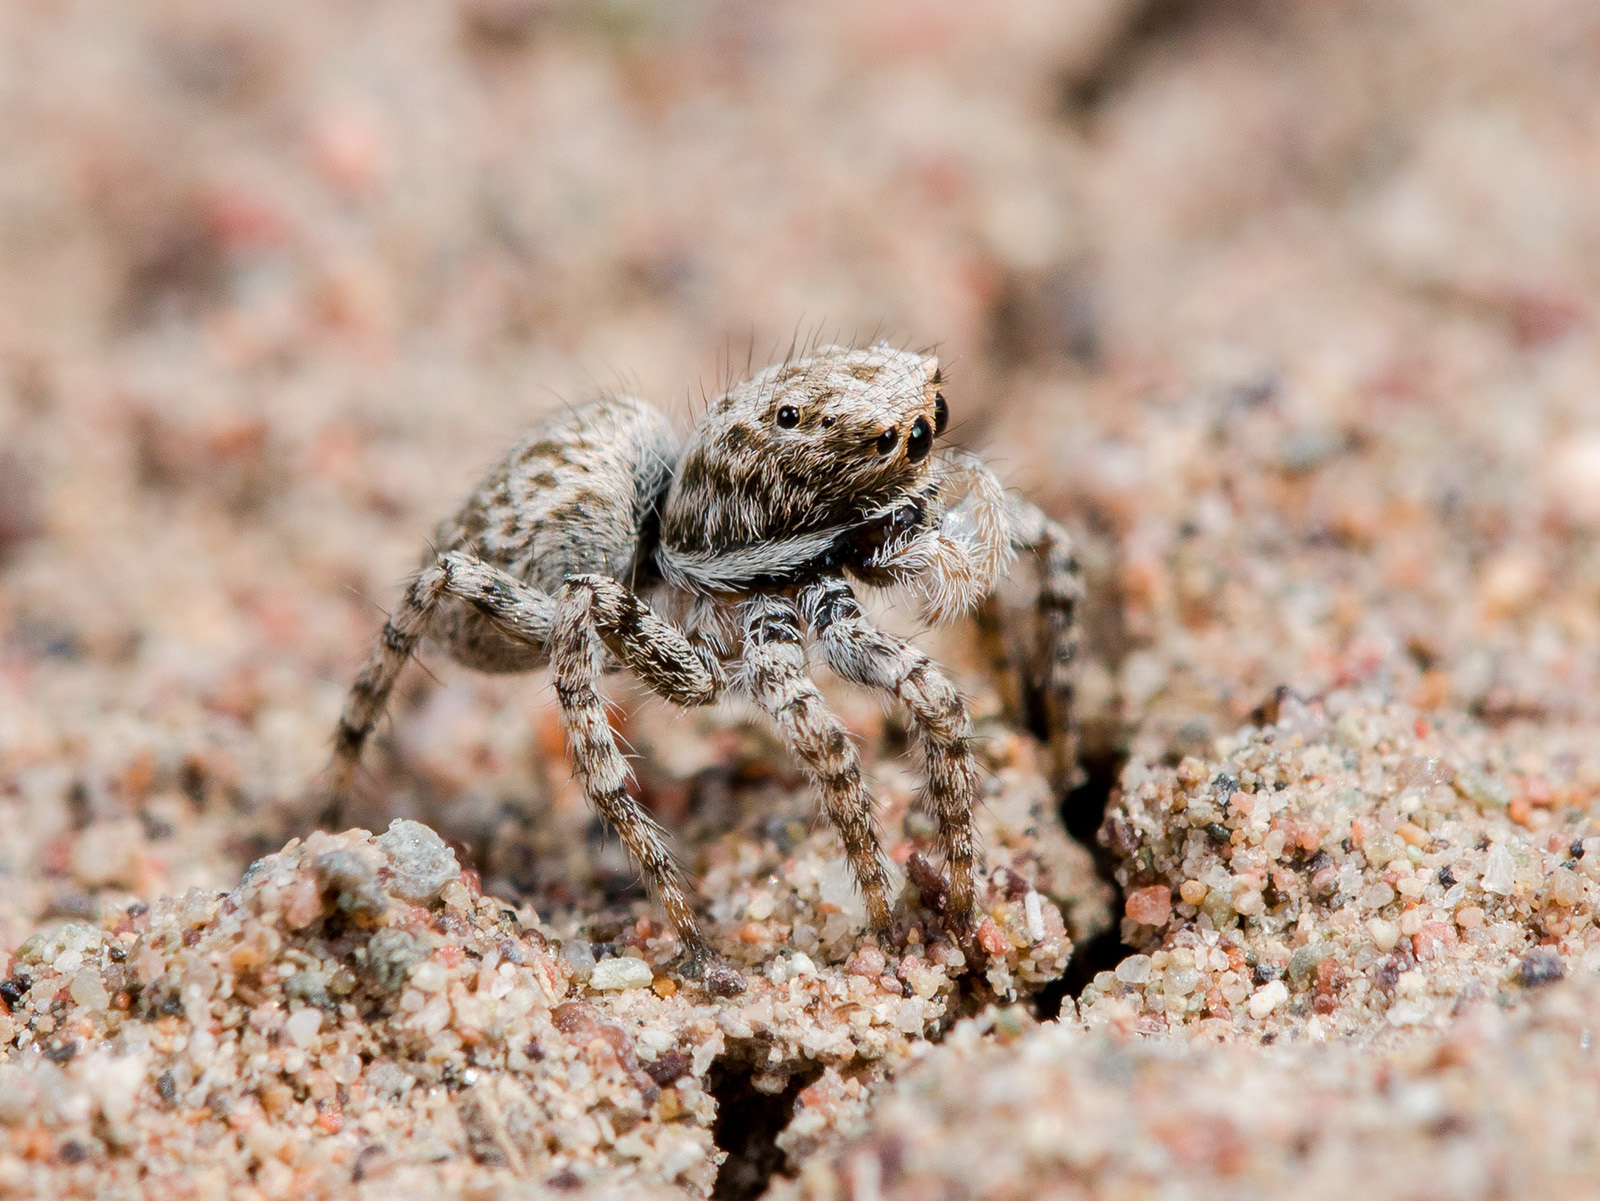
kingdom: Animalia
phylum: Arthropoda
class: Arachnida
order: Araneae
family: Salticidae
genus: Aelurillus
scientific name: Aelurillus andreevae
